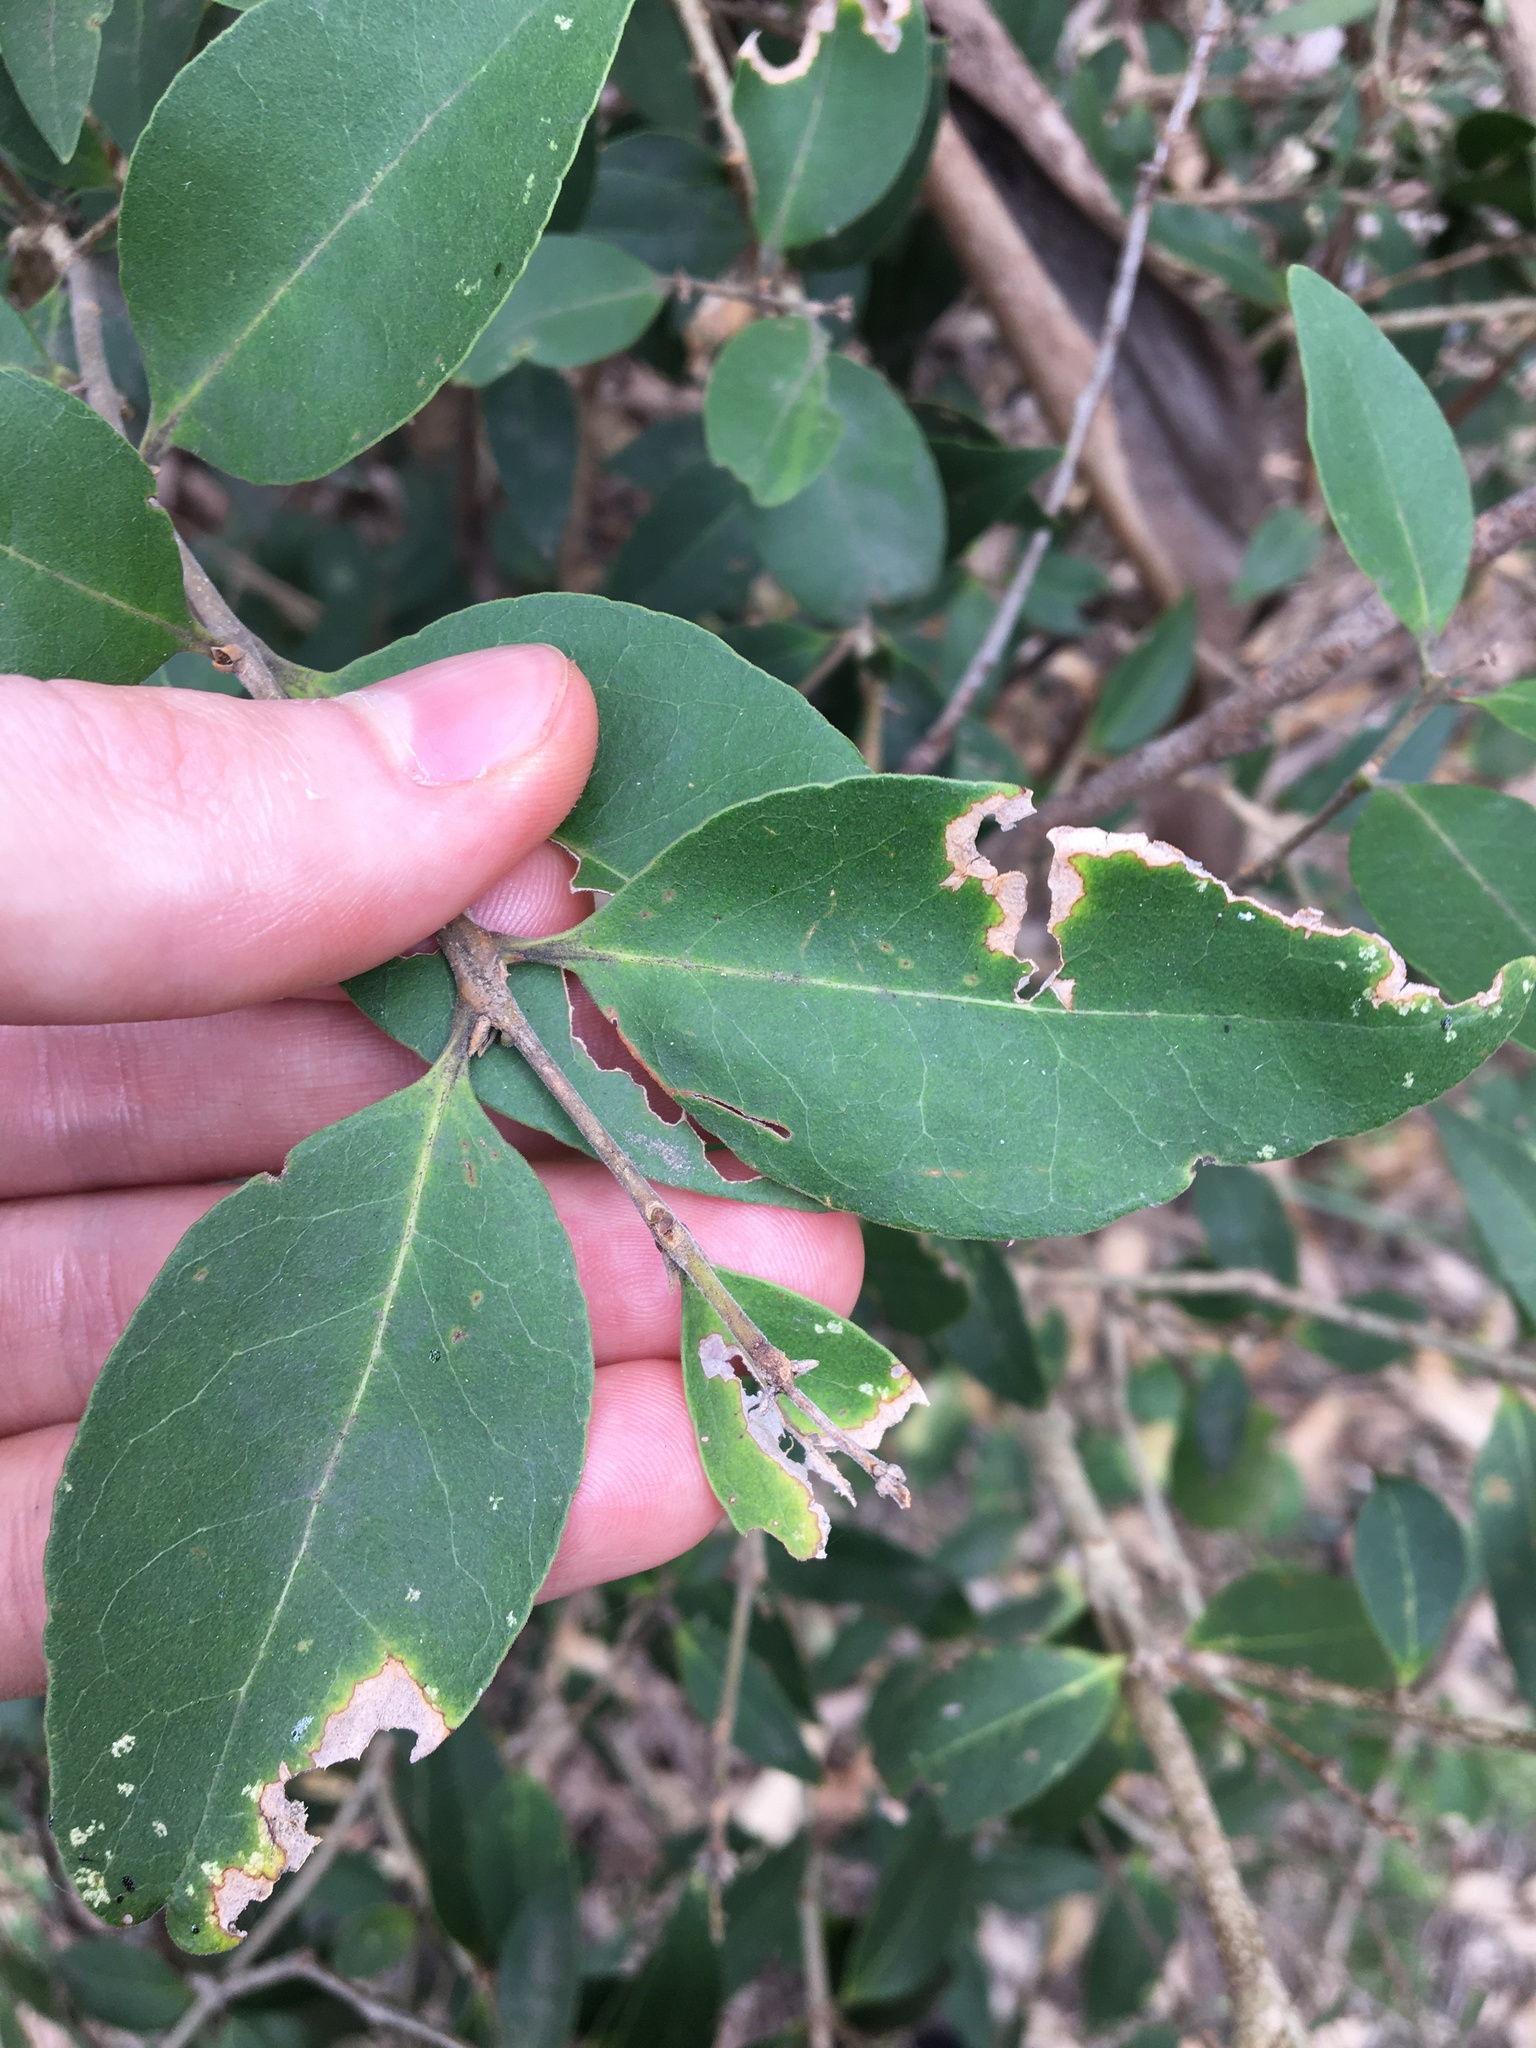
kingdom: Plantae
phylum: Tracheophyta
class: Magnoliopsida
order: Lamiales
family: Oleaceae
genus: Notelaea
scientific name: Notelaea ovata
